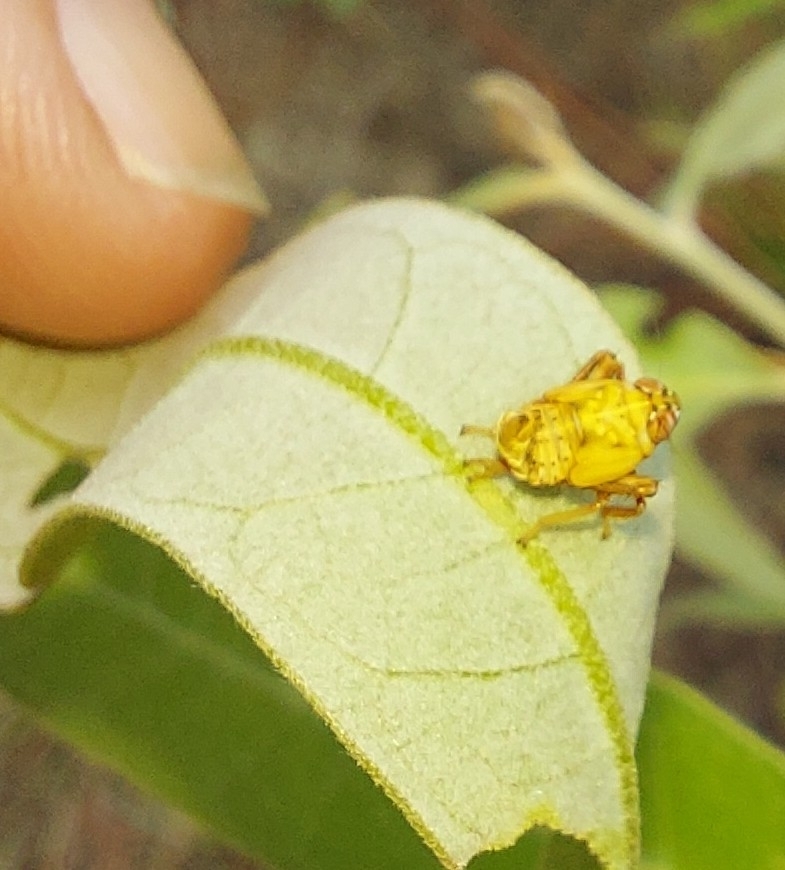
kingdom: Animalia
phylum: Arthropoda
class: Insecta
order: Hemiptera
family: Cicadellidae
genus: Jikradia
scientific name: Jikradia
